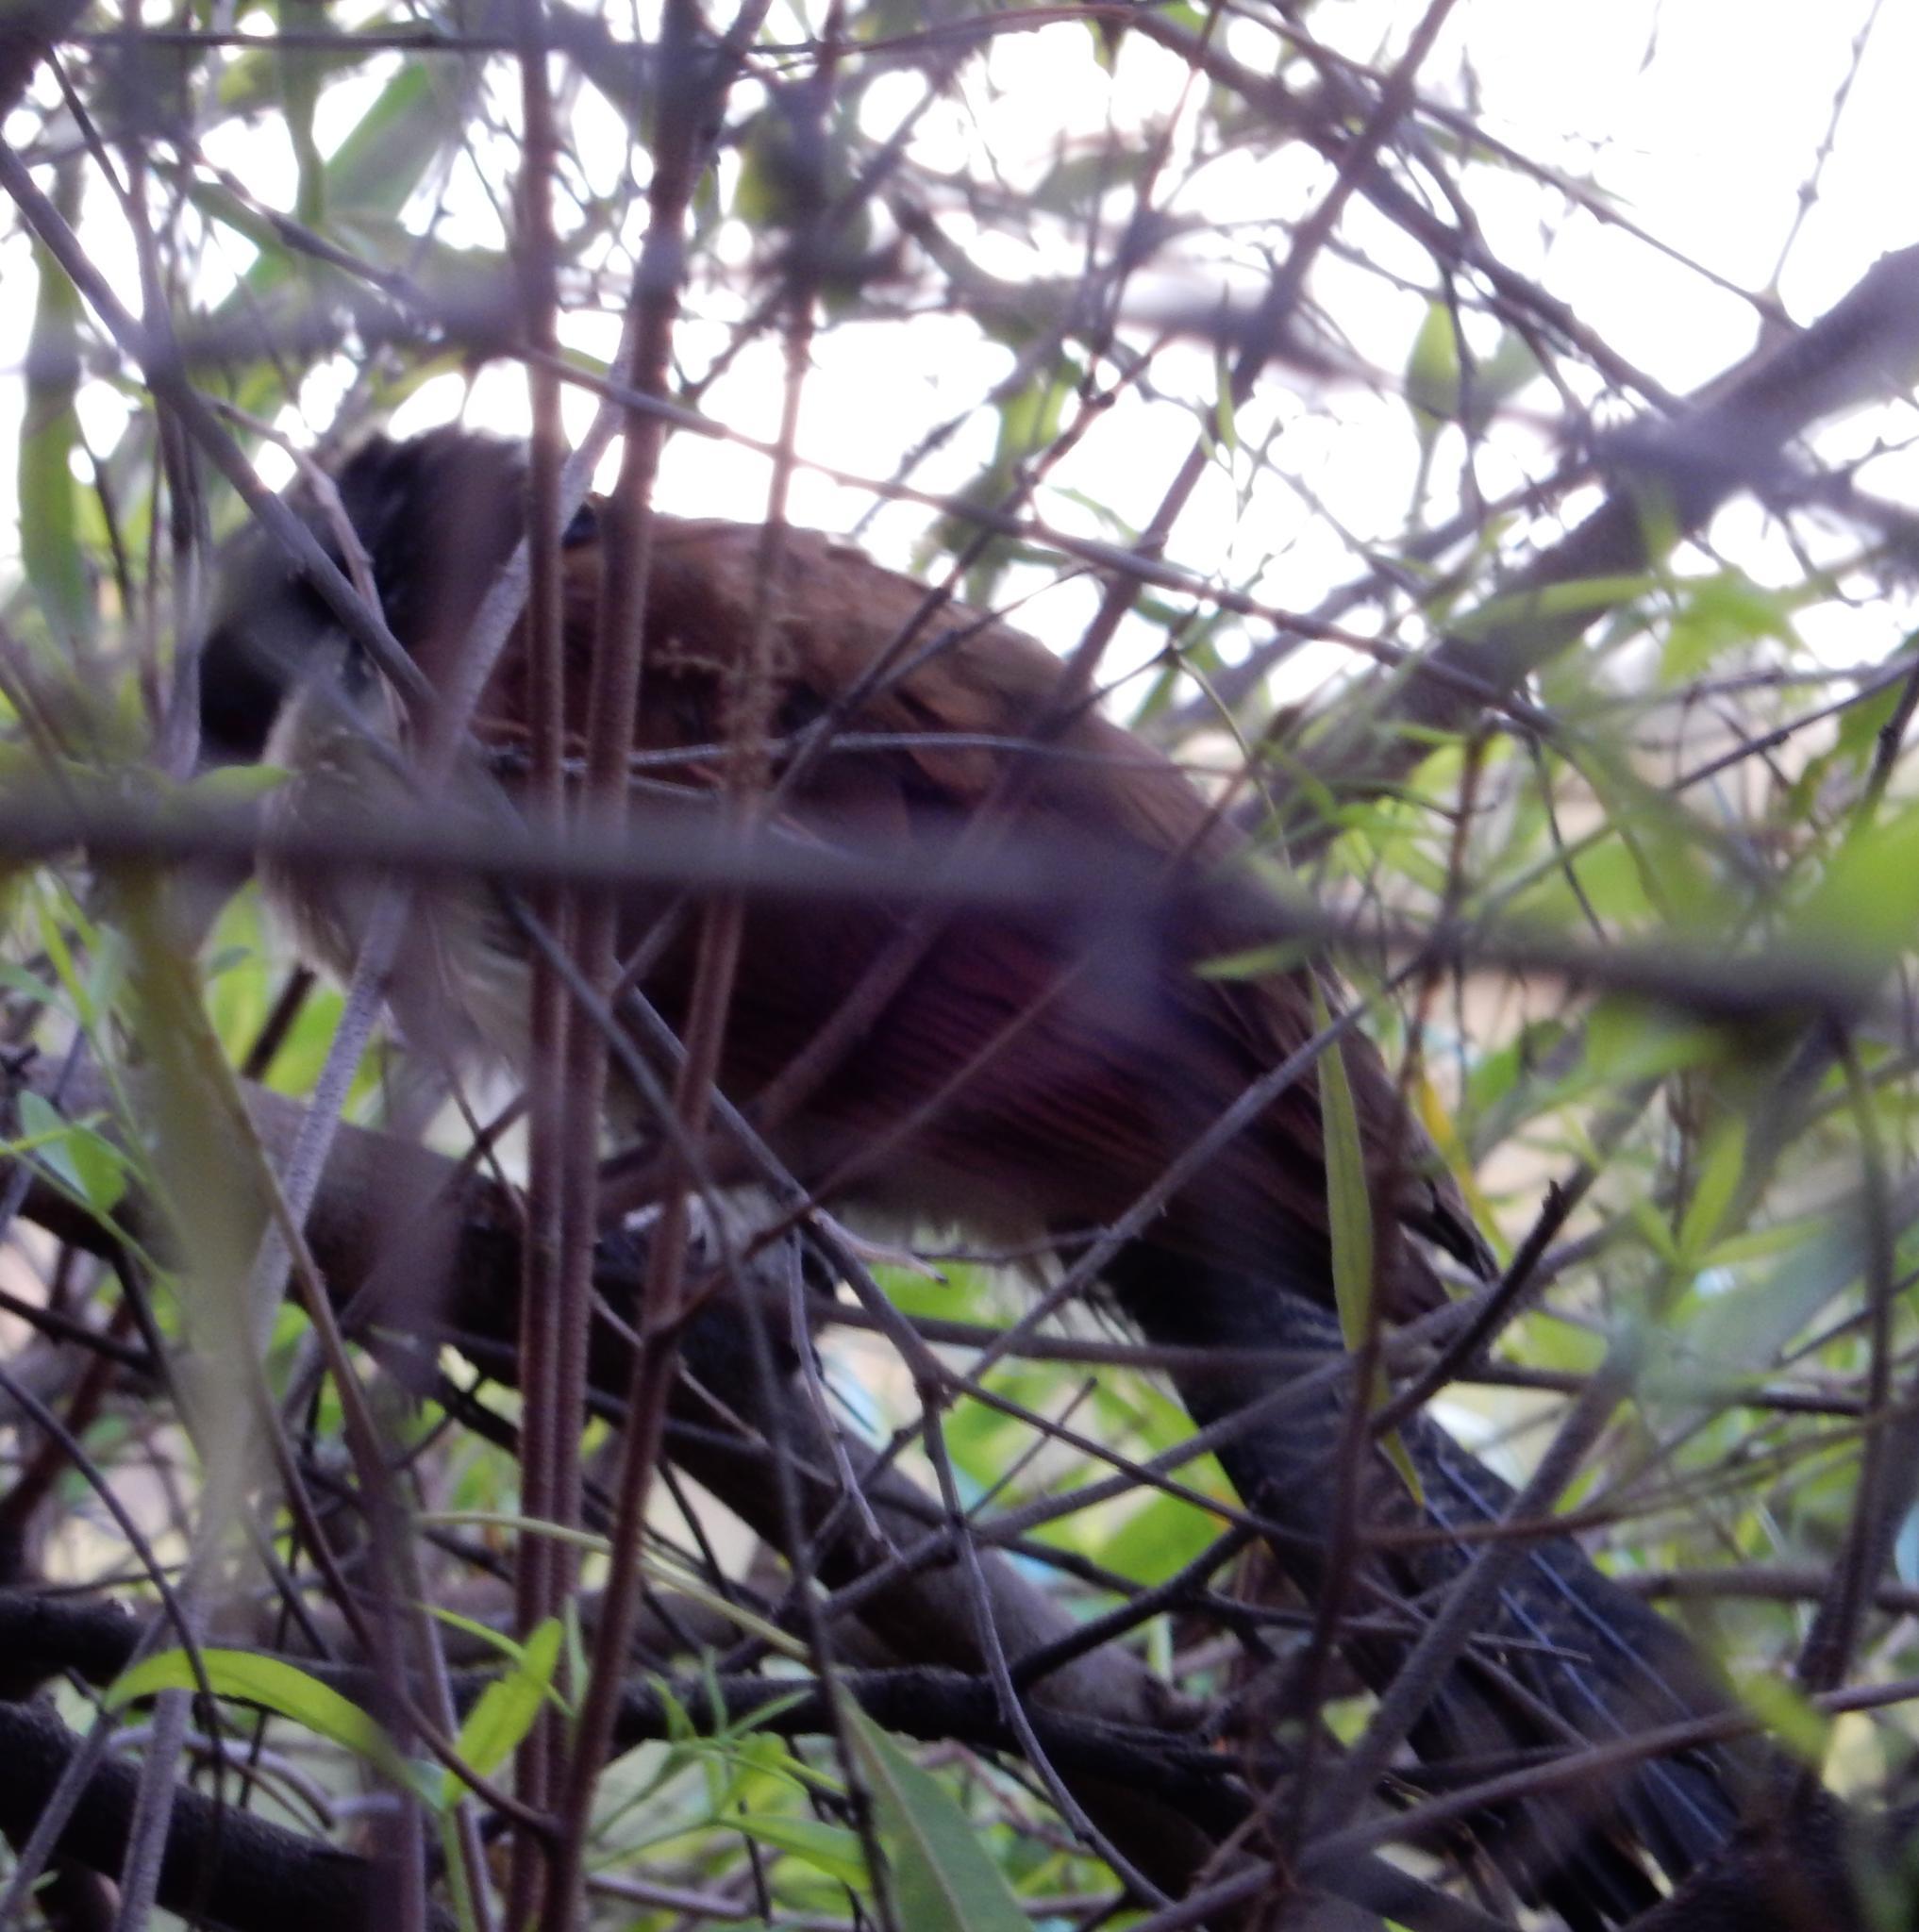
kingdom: Animalia
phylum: Chordata
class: Aves
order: Cuculiformes
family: Cuculidae
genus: Centropus
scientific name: Centropus superciliosus
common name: White-browed coucal
